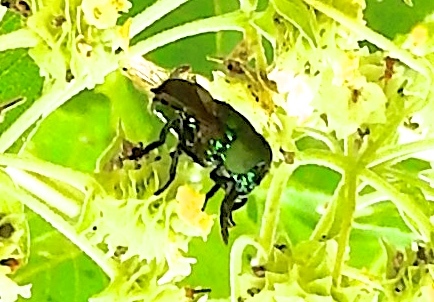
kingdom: Animalia
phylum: Arthropoda
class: Insecta
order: Diptera
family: Syrphidae
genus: Ornidia
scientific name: Ornidia
